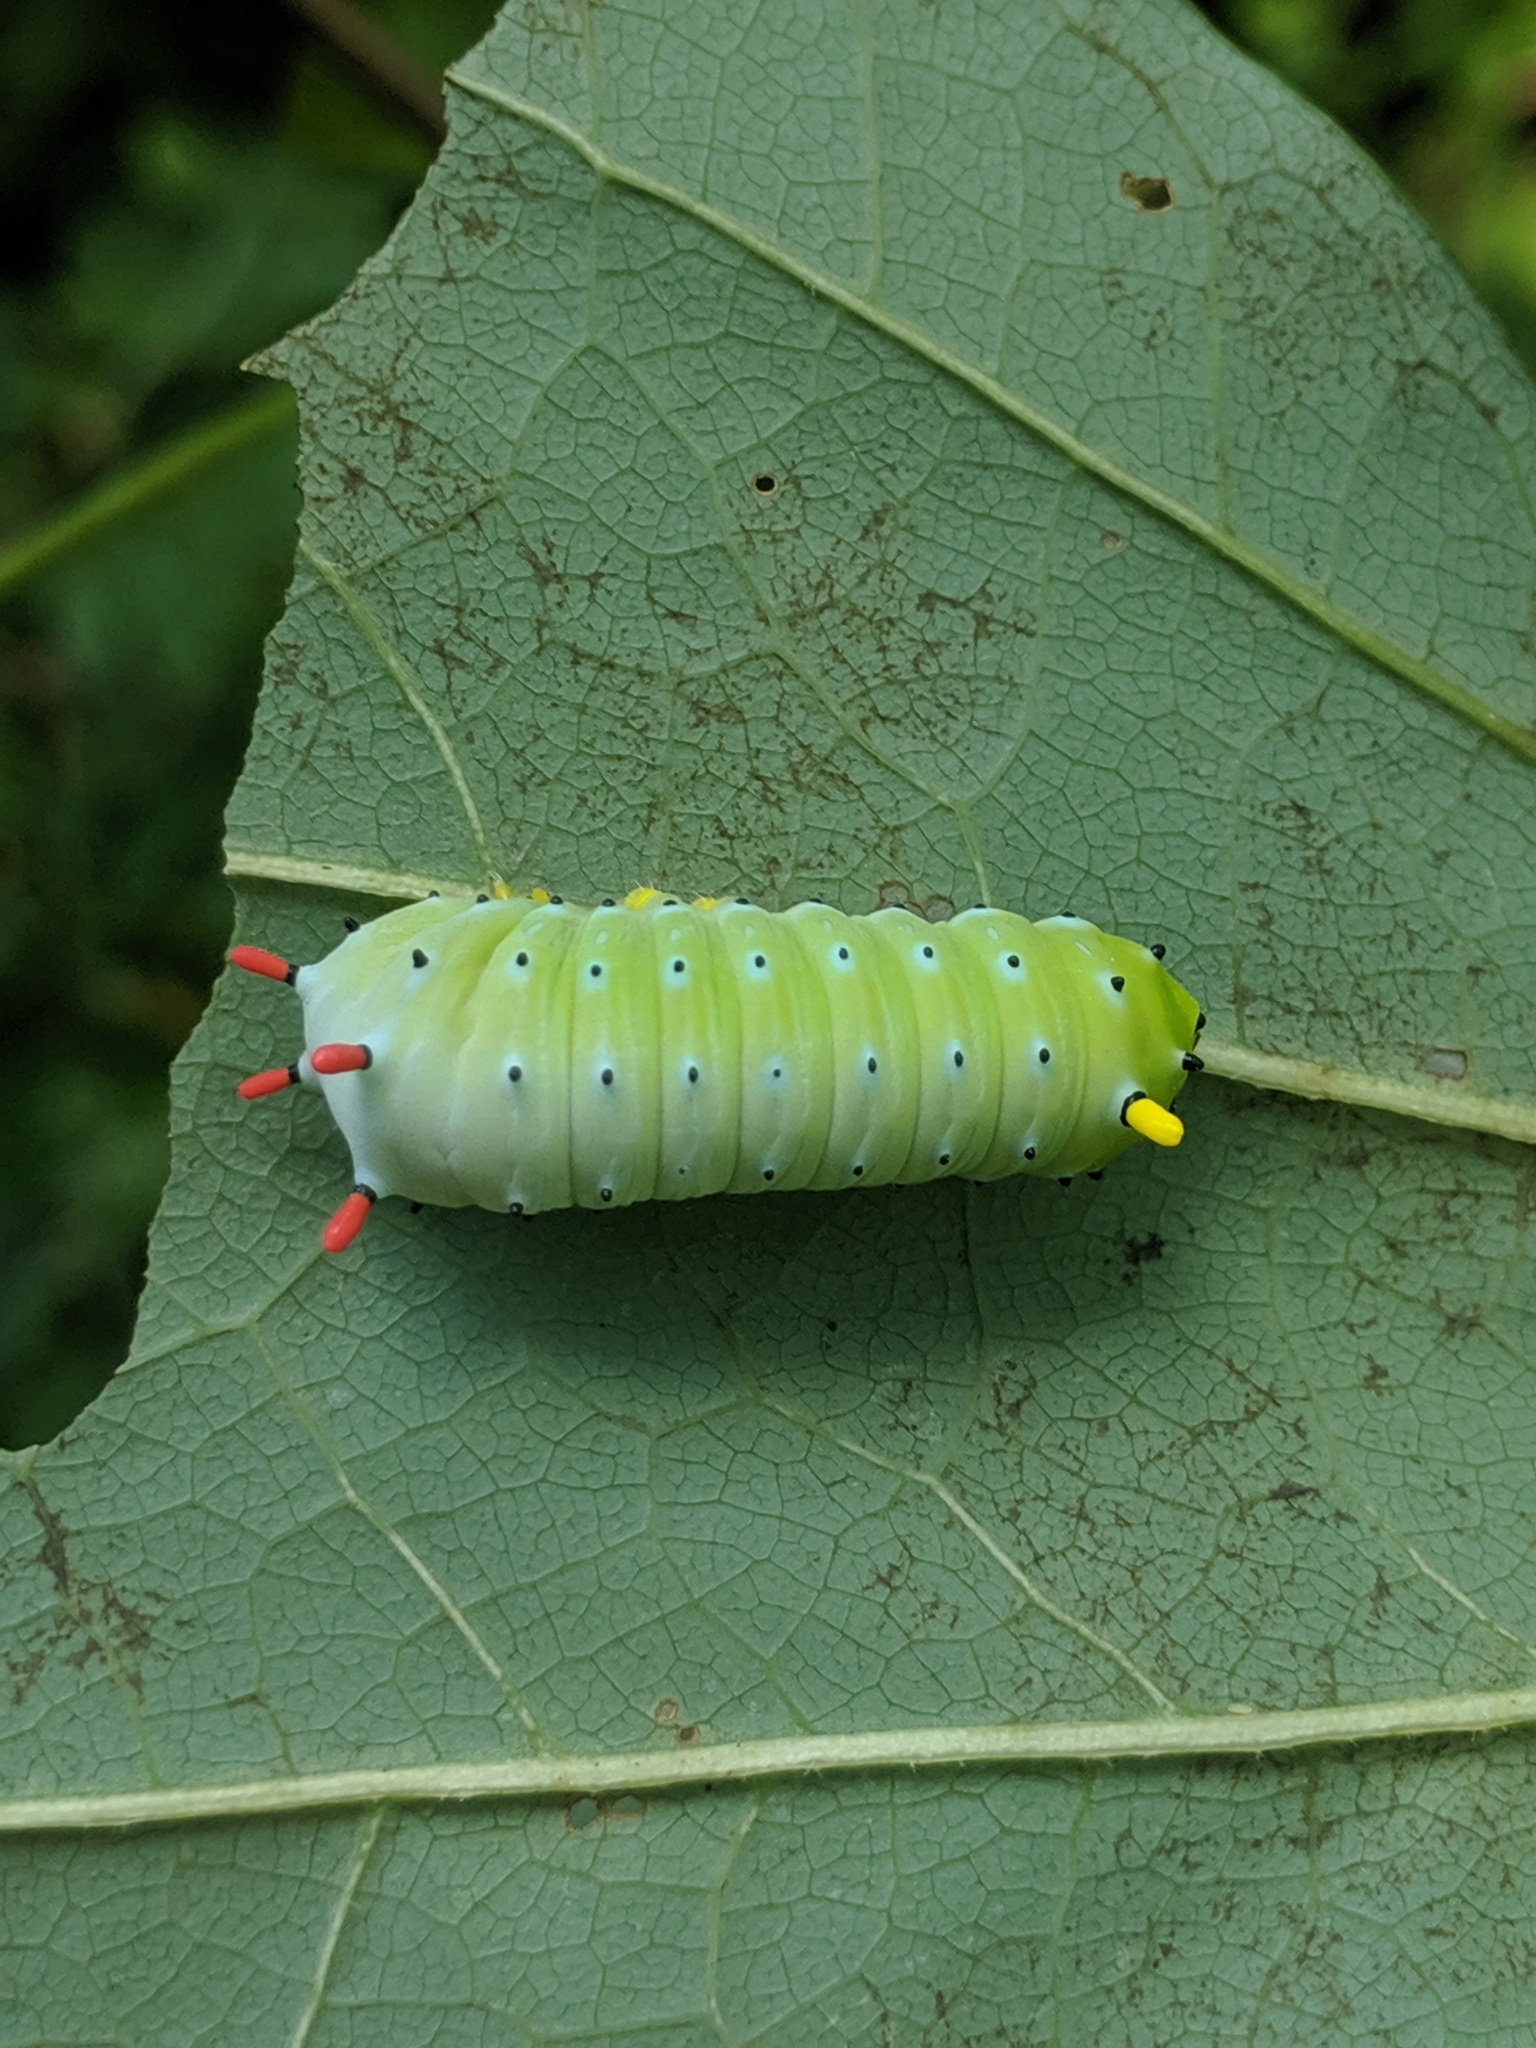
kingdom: Animalia
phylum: Arthropoda
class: Insecta
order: Lepidoptera
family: Saturniidae
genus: Callosamia
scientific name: Callosamia promethea
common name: Promethea silkmoth
